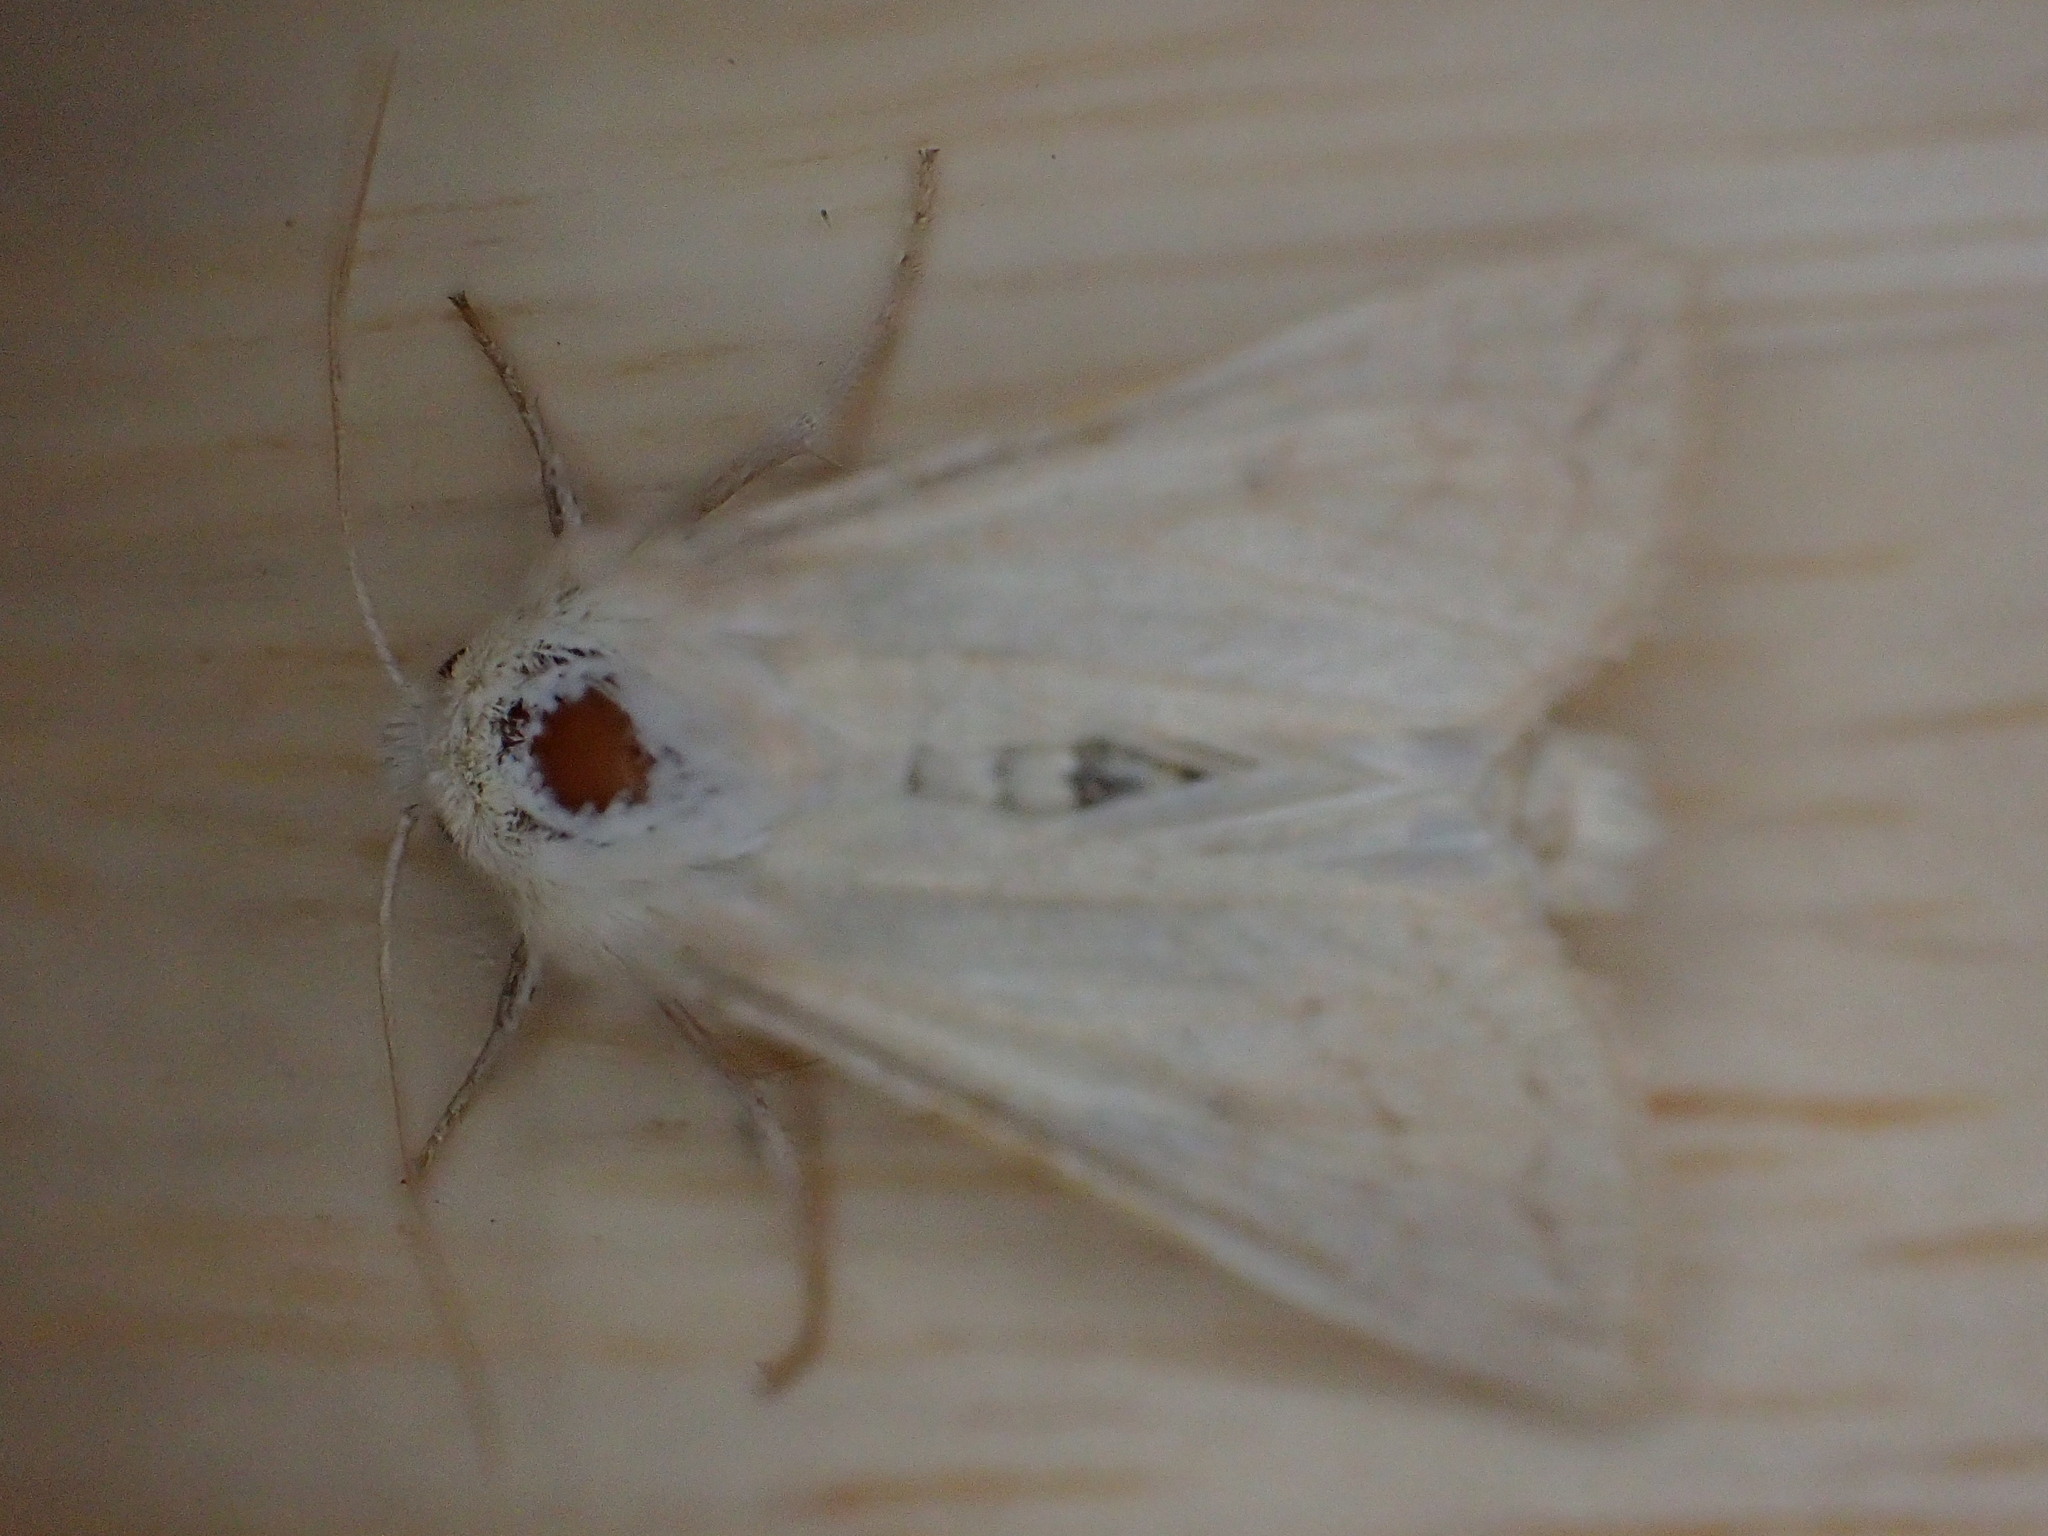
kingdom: Animalia
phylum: Arthropoda
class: Insecta
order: Lepidoptera
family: Noctuidae
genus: Mythimna
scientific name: Mythimna vitellina
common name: Delicate
